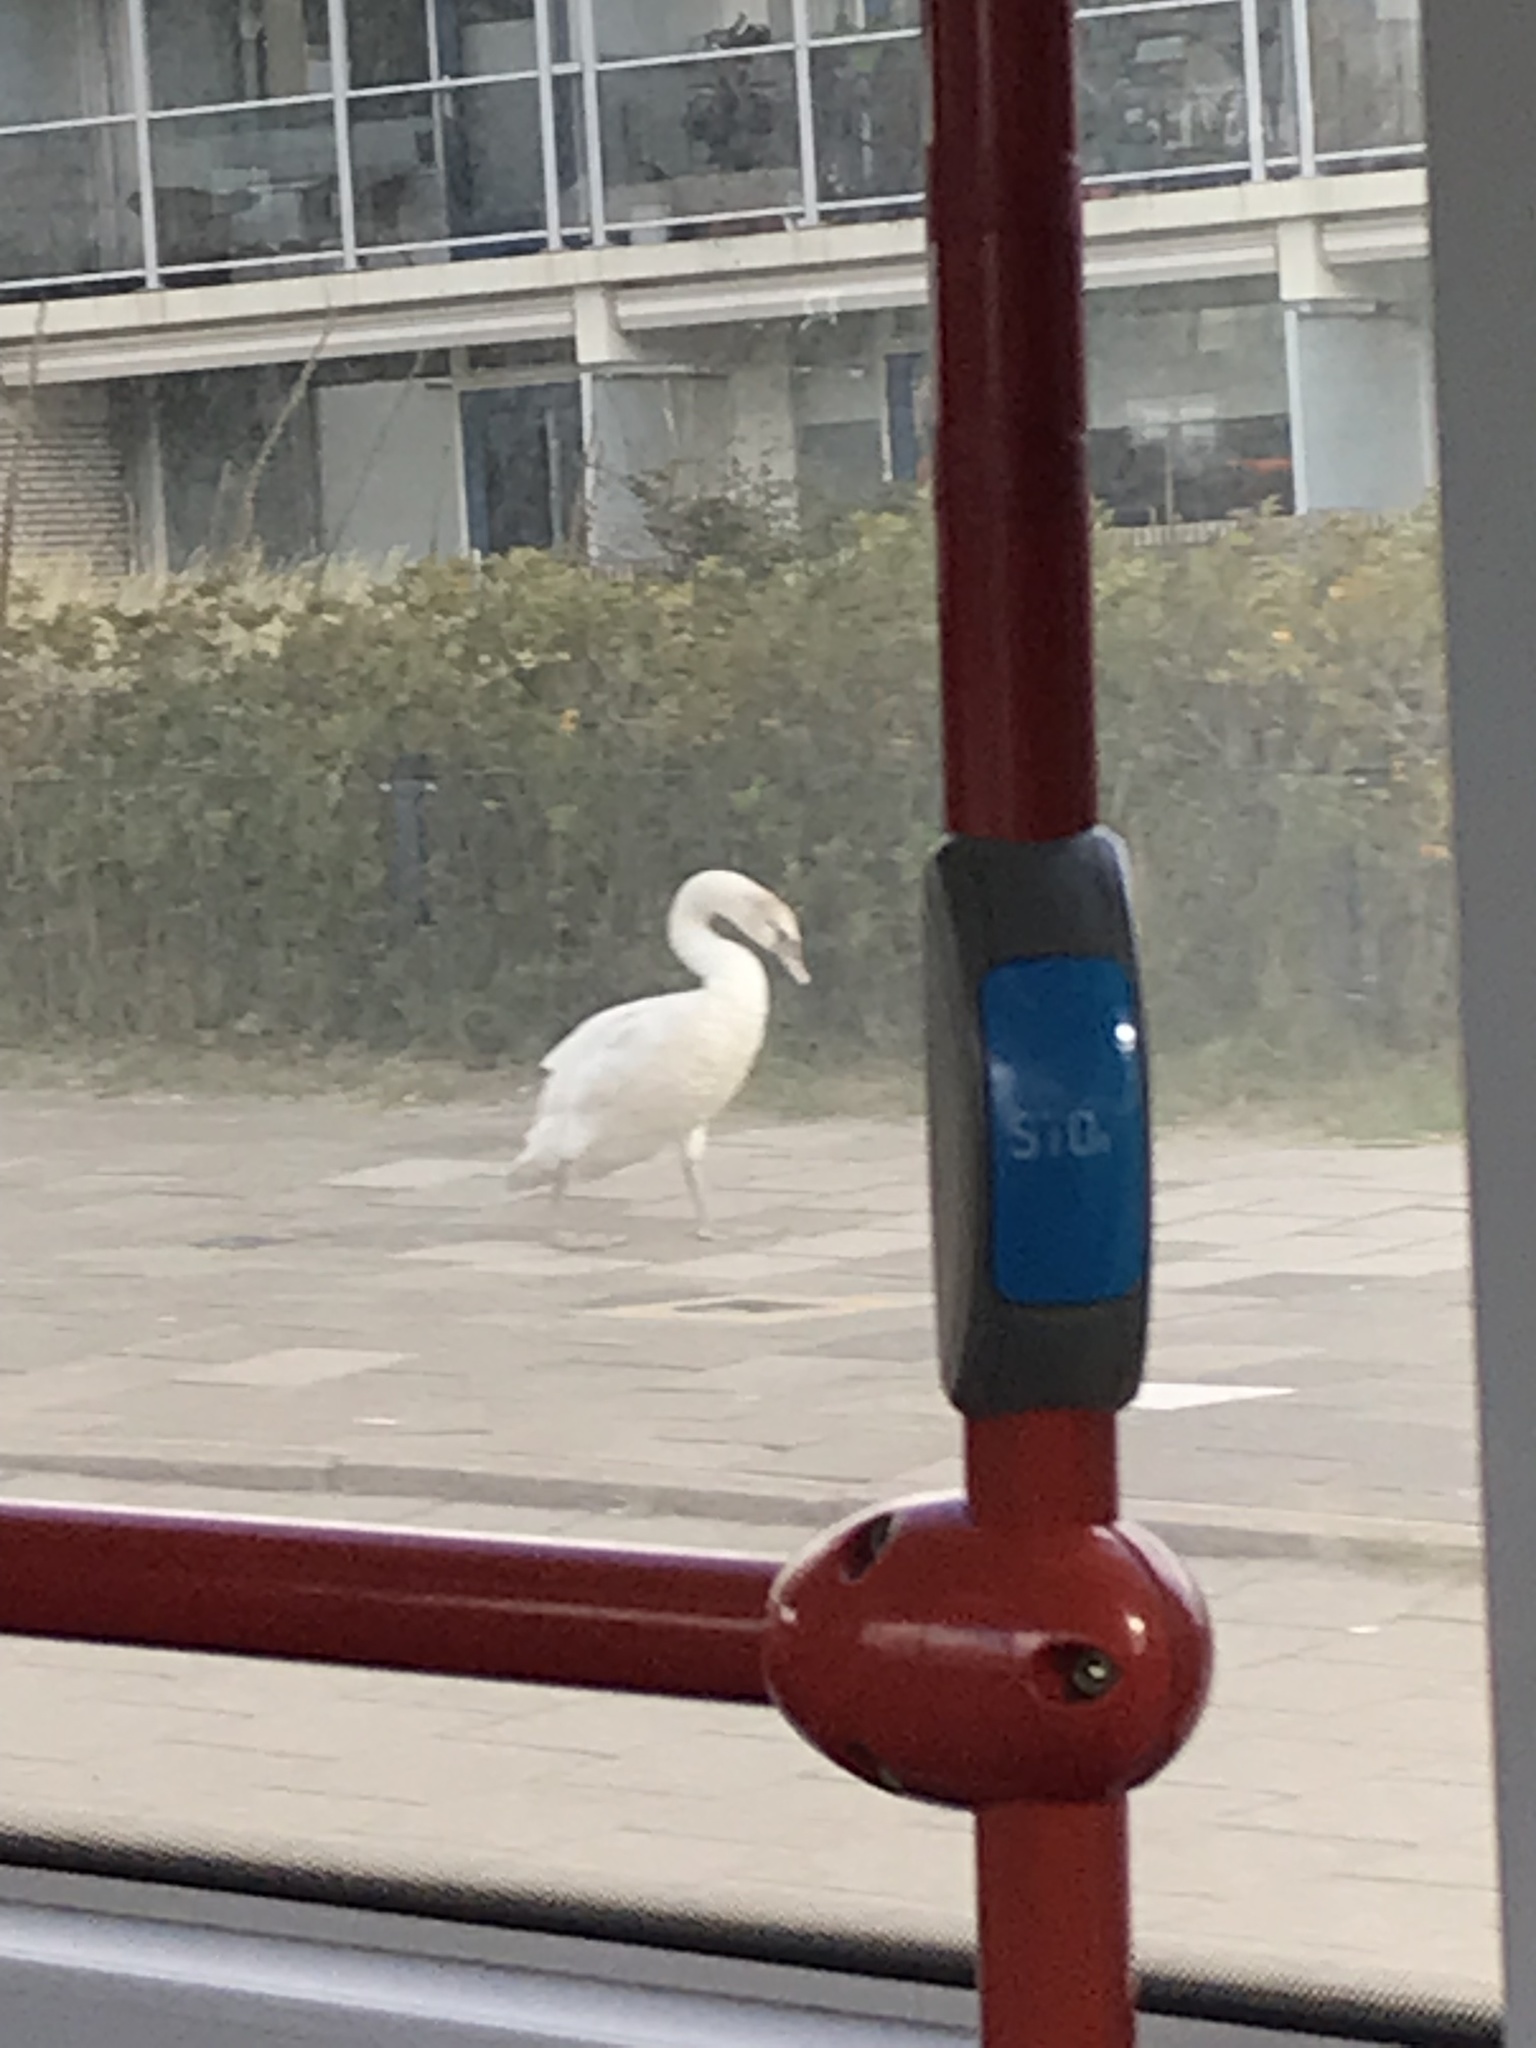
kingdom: Animalia
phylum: Chordata
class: Aves
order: Anseriformes
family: Anatidae
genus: Cygnus
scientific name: Cygnus olor
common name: Mute swan
